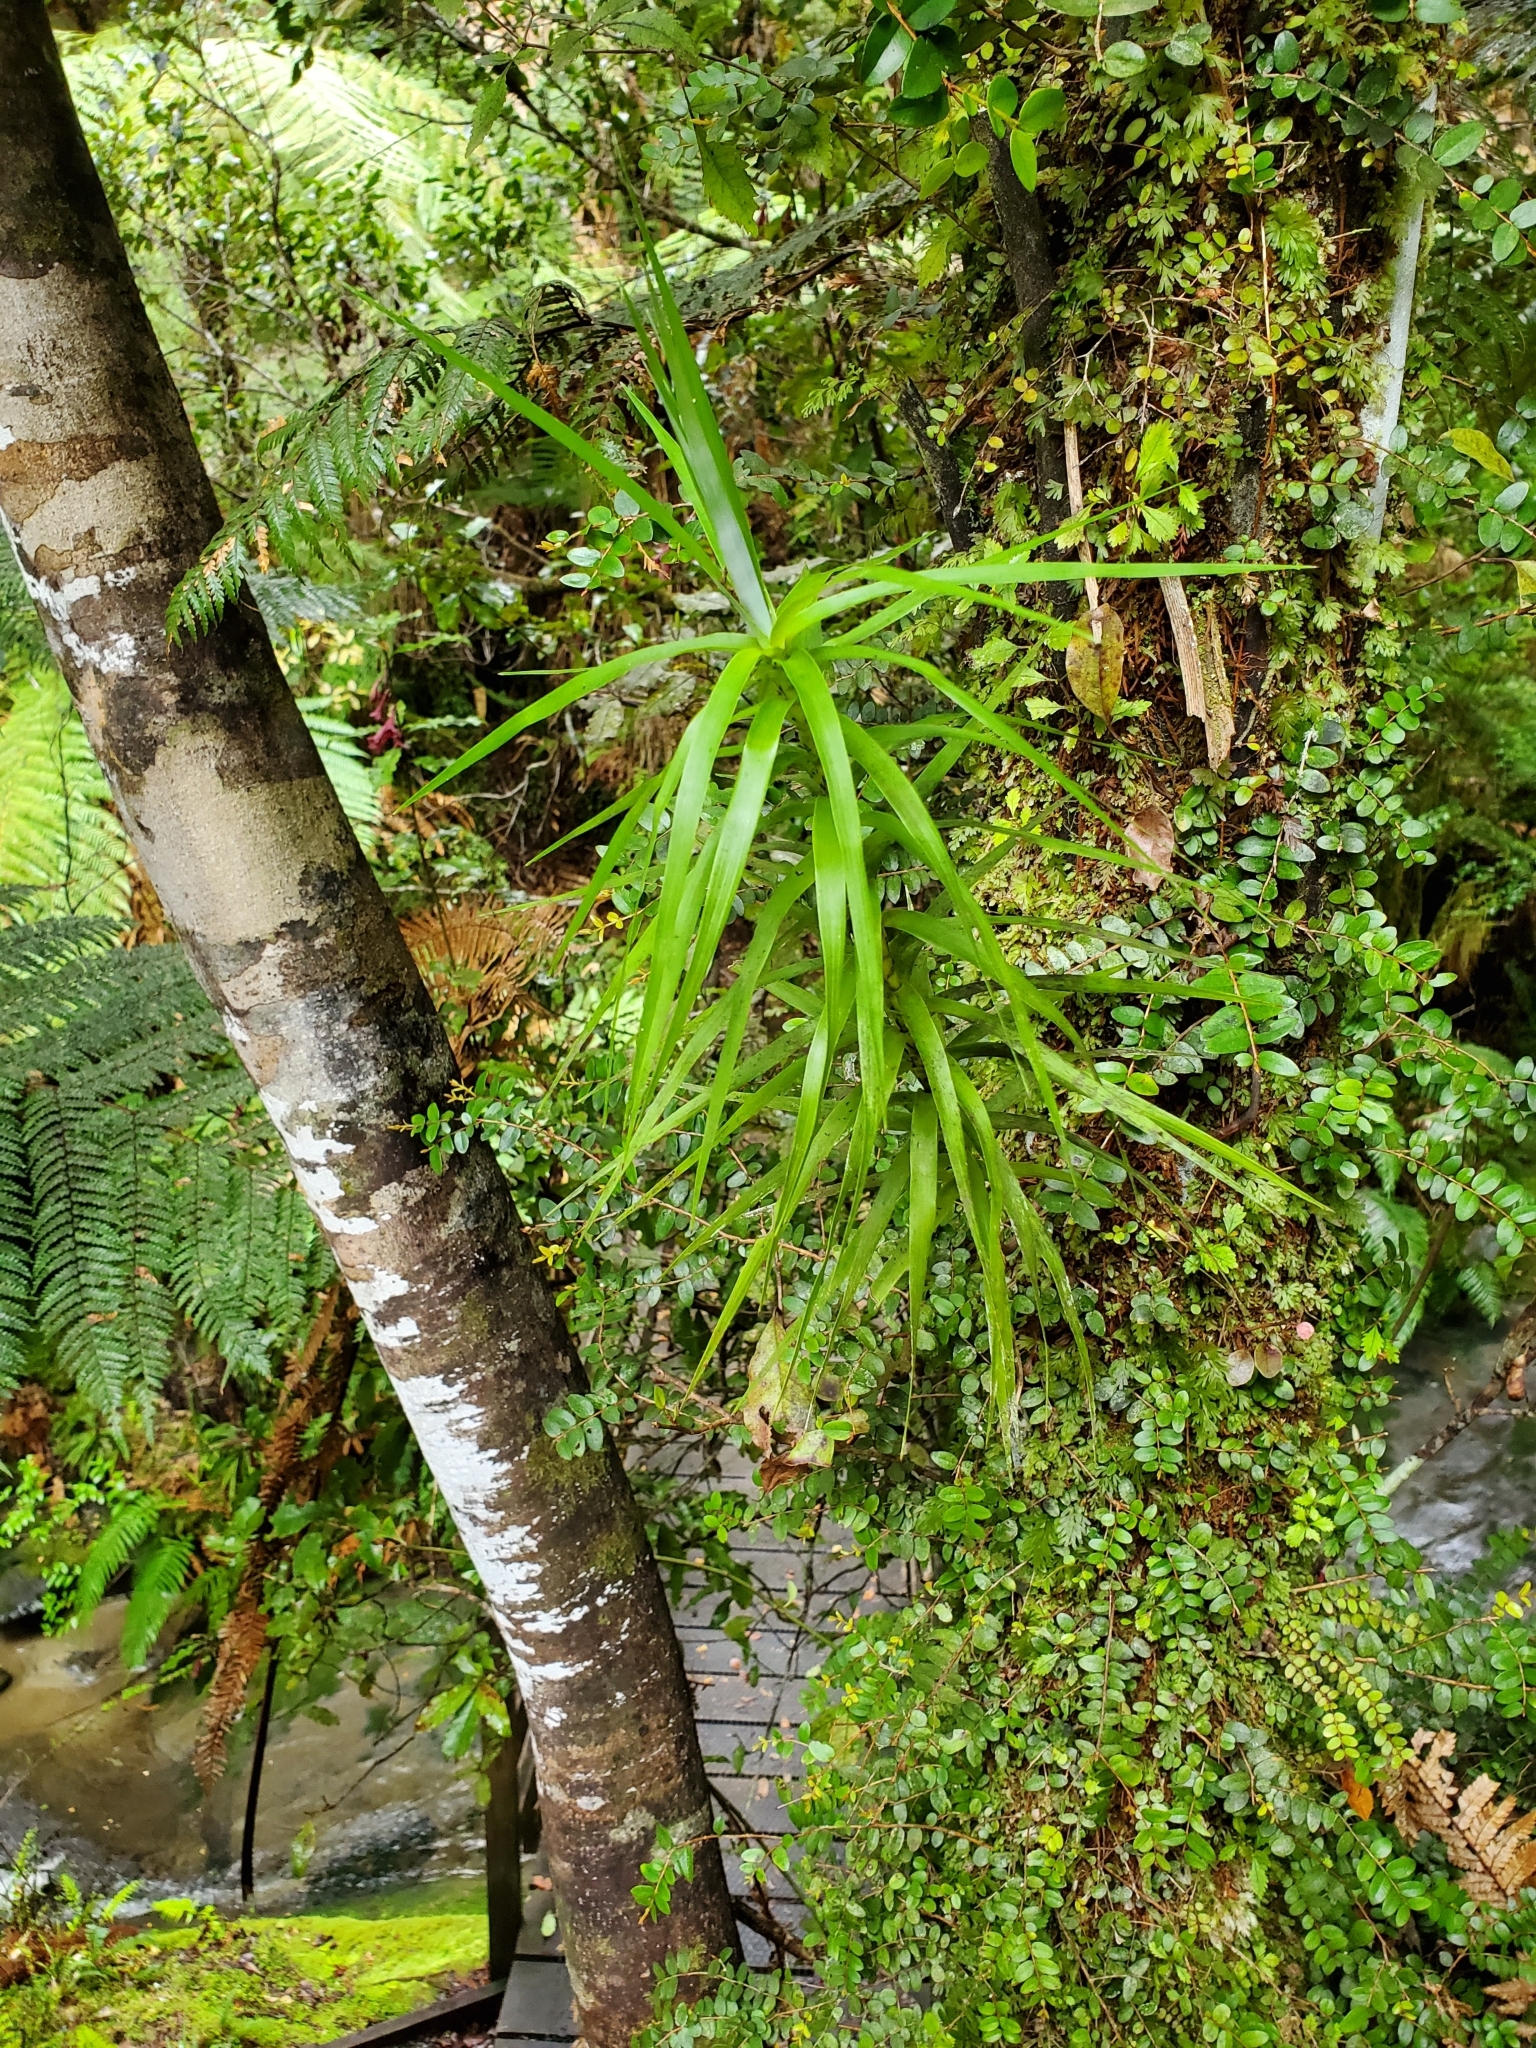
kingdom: Plantae
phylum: Tracheophyta
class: Magnoliopsida
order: Ericales
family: Ericaceae
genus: Dracophyllum
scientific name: Dracophyllum strictum
